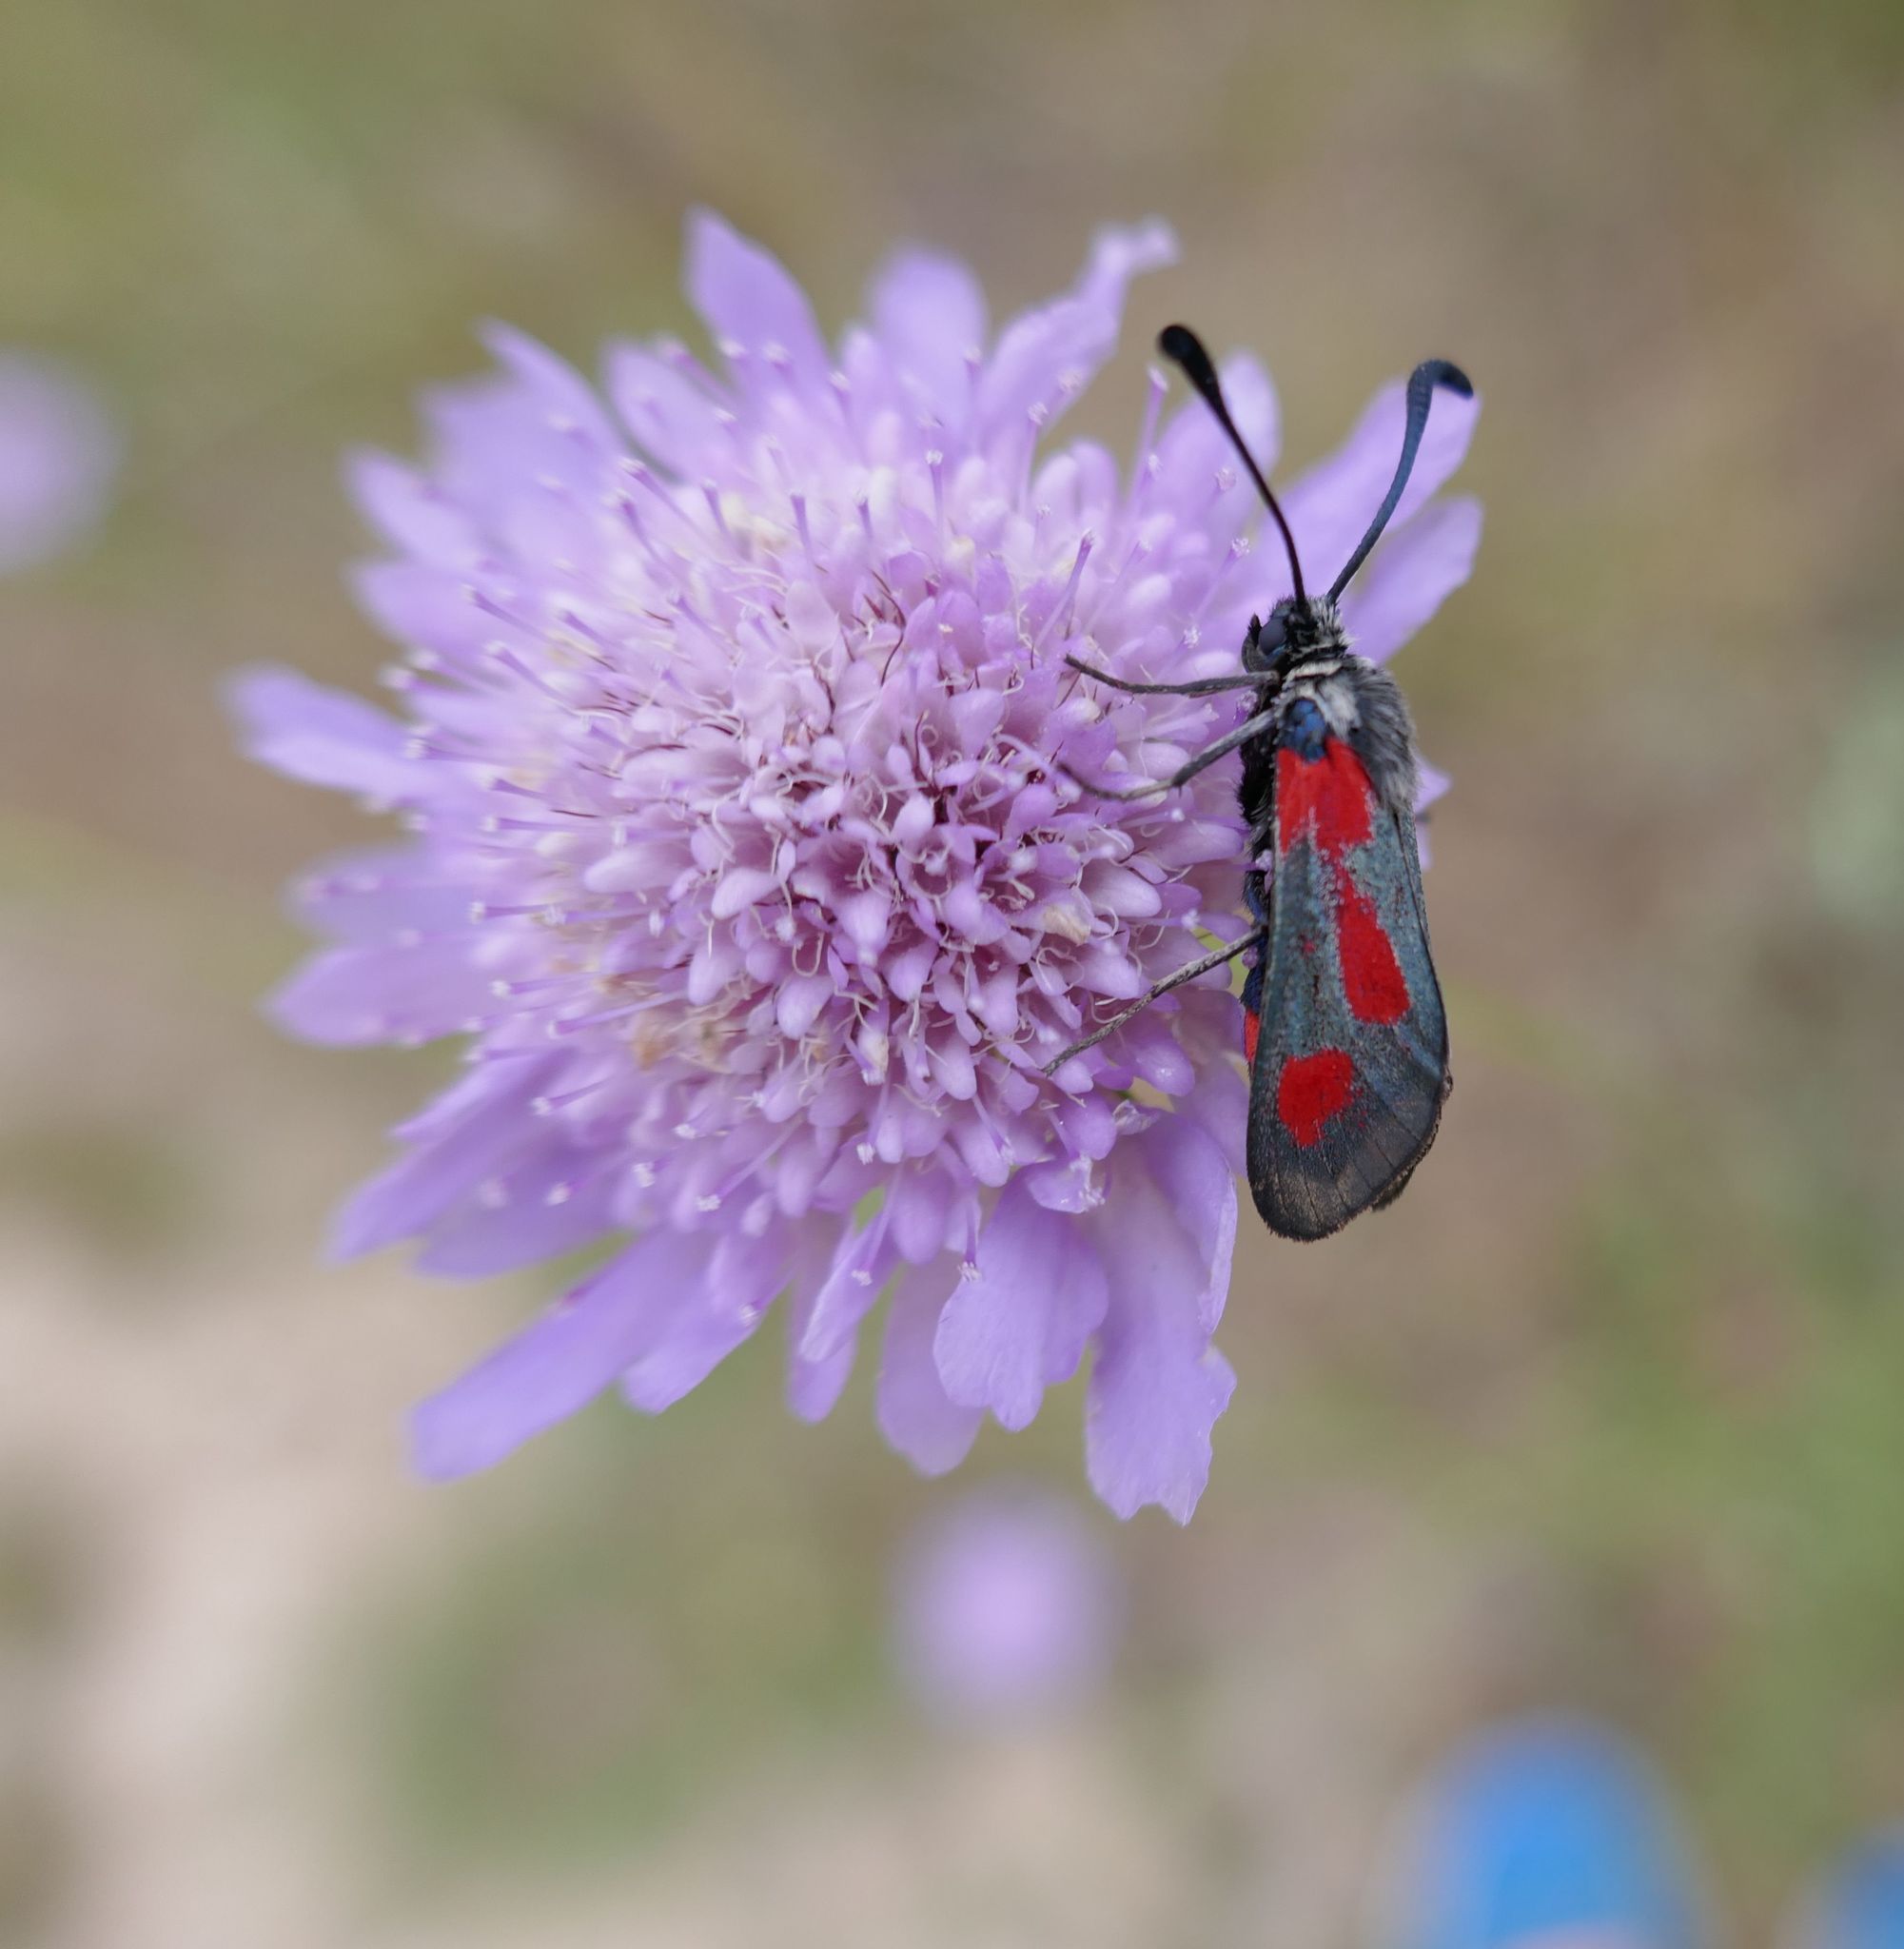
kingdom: Animalia
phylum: Arthropoda
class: Insecta
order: Lepidoptera
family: Zygaenidae
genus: Zygaena
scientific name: Zygaena sarpedon
